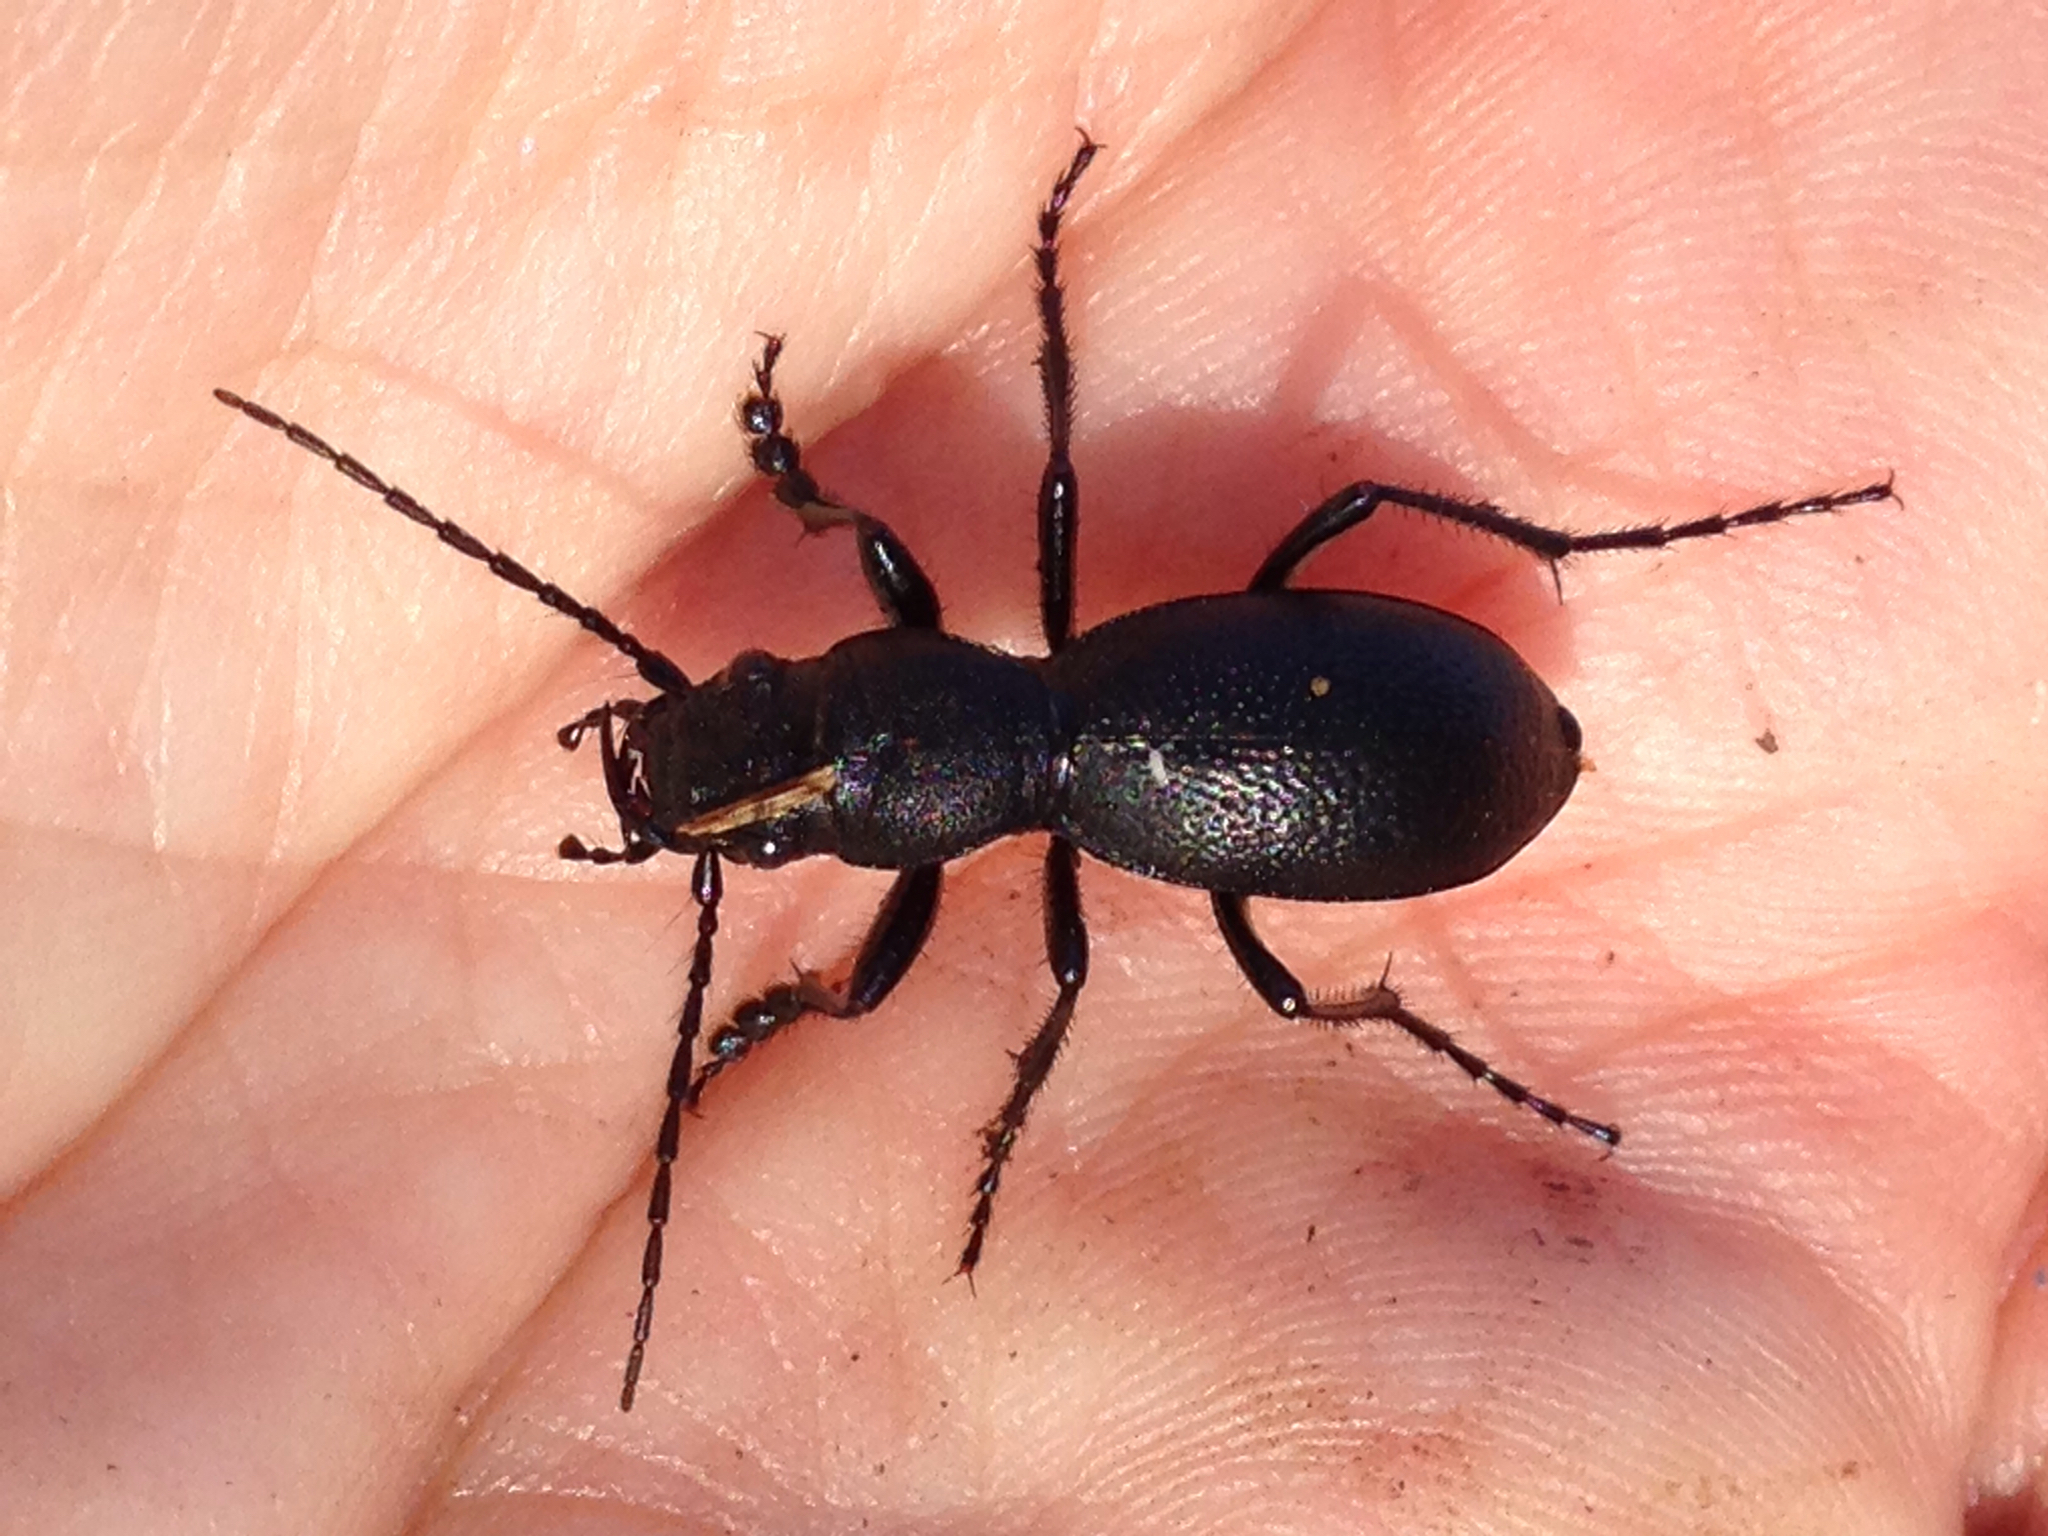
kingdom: Animalia
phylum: Arthropoda
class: Insecta
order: Coleoptera
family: Carabidae
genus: Omus
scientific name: Omus californicus
